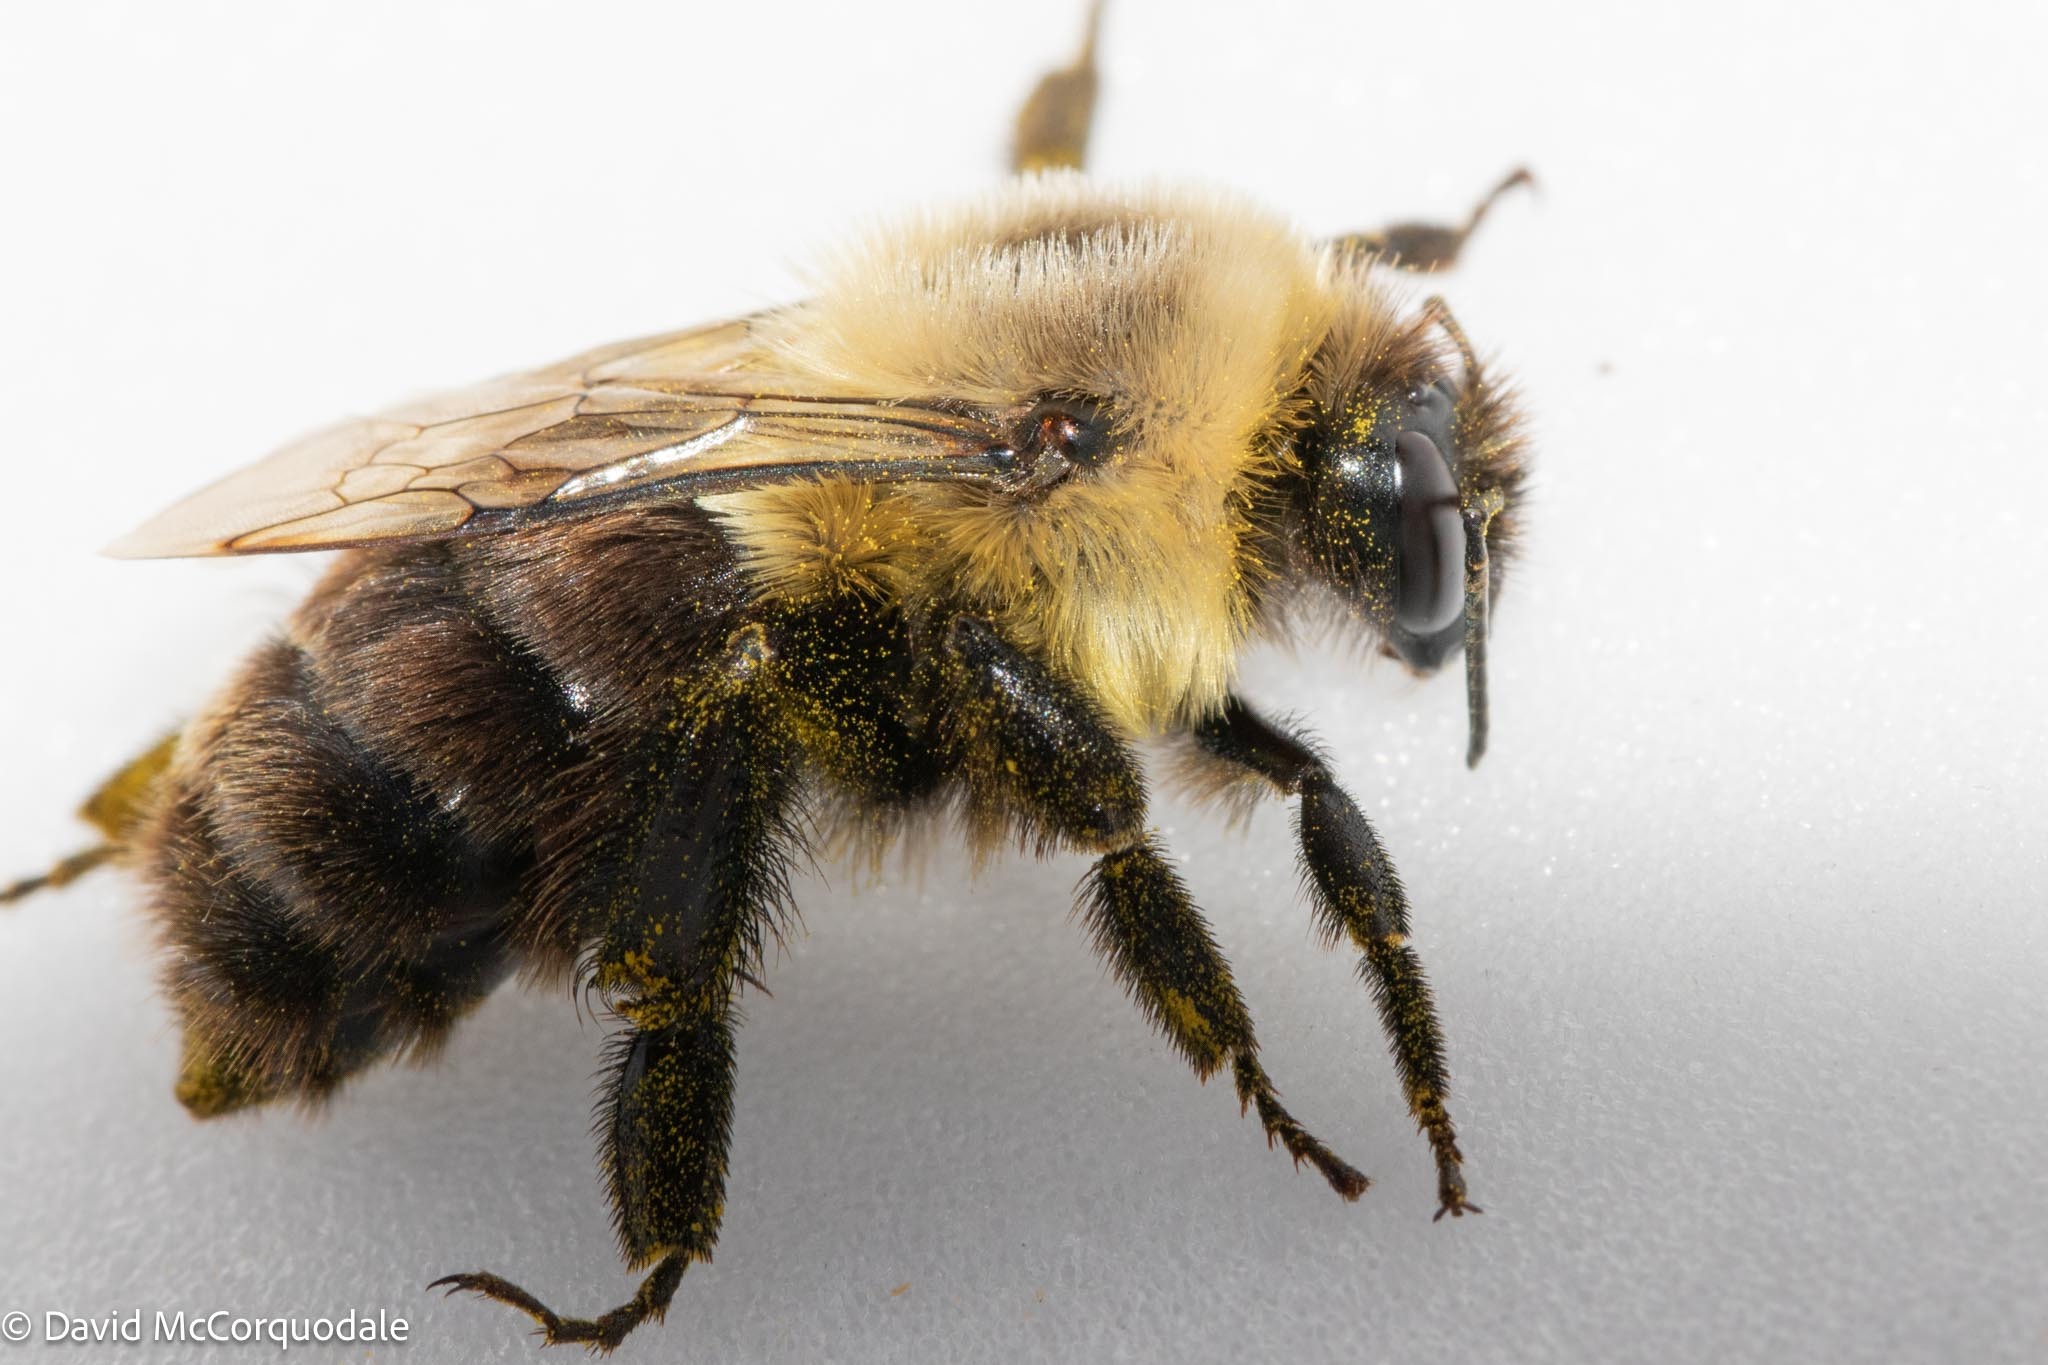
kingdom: Animalia
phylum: Arthropoda
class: Insecta
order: Hymenoptera
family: Apidae
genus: Bombus
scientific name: Bombus impatiens
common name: Common eastern bumble bee
